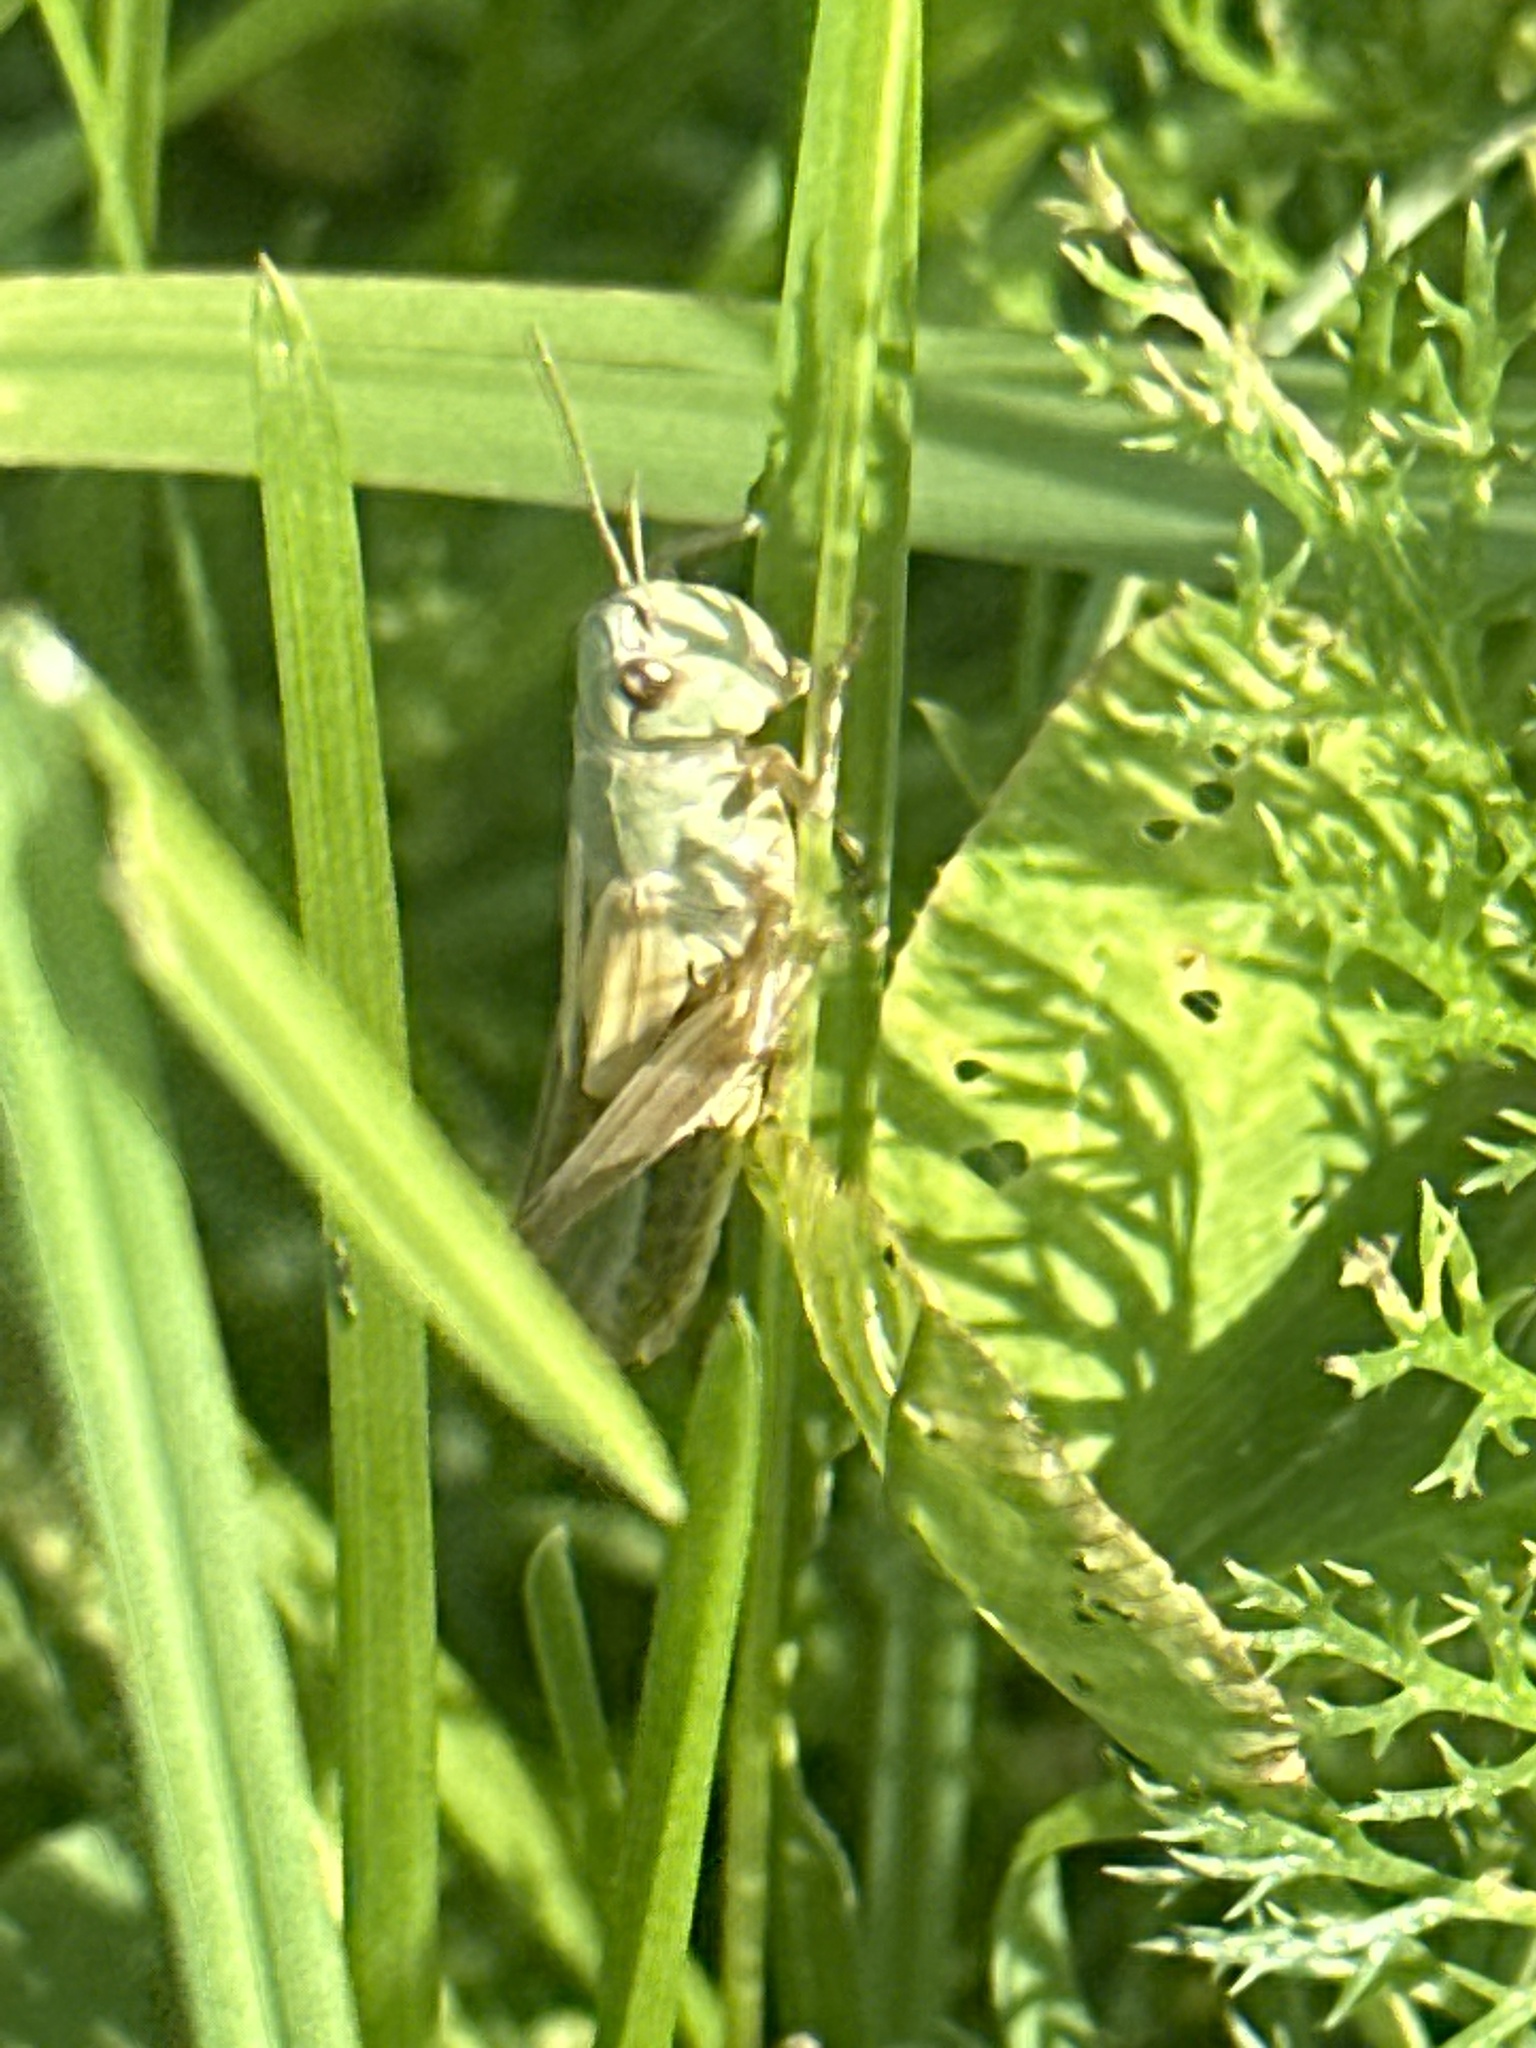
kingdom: Animalia
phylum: Arthropoda
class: Insecta
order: Orthoptera
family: Acrididae
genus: Pseudochorthippus
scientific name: Pseudochorthippus parallelus
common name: Meadow grasshopper
